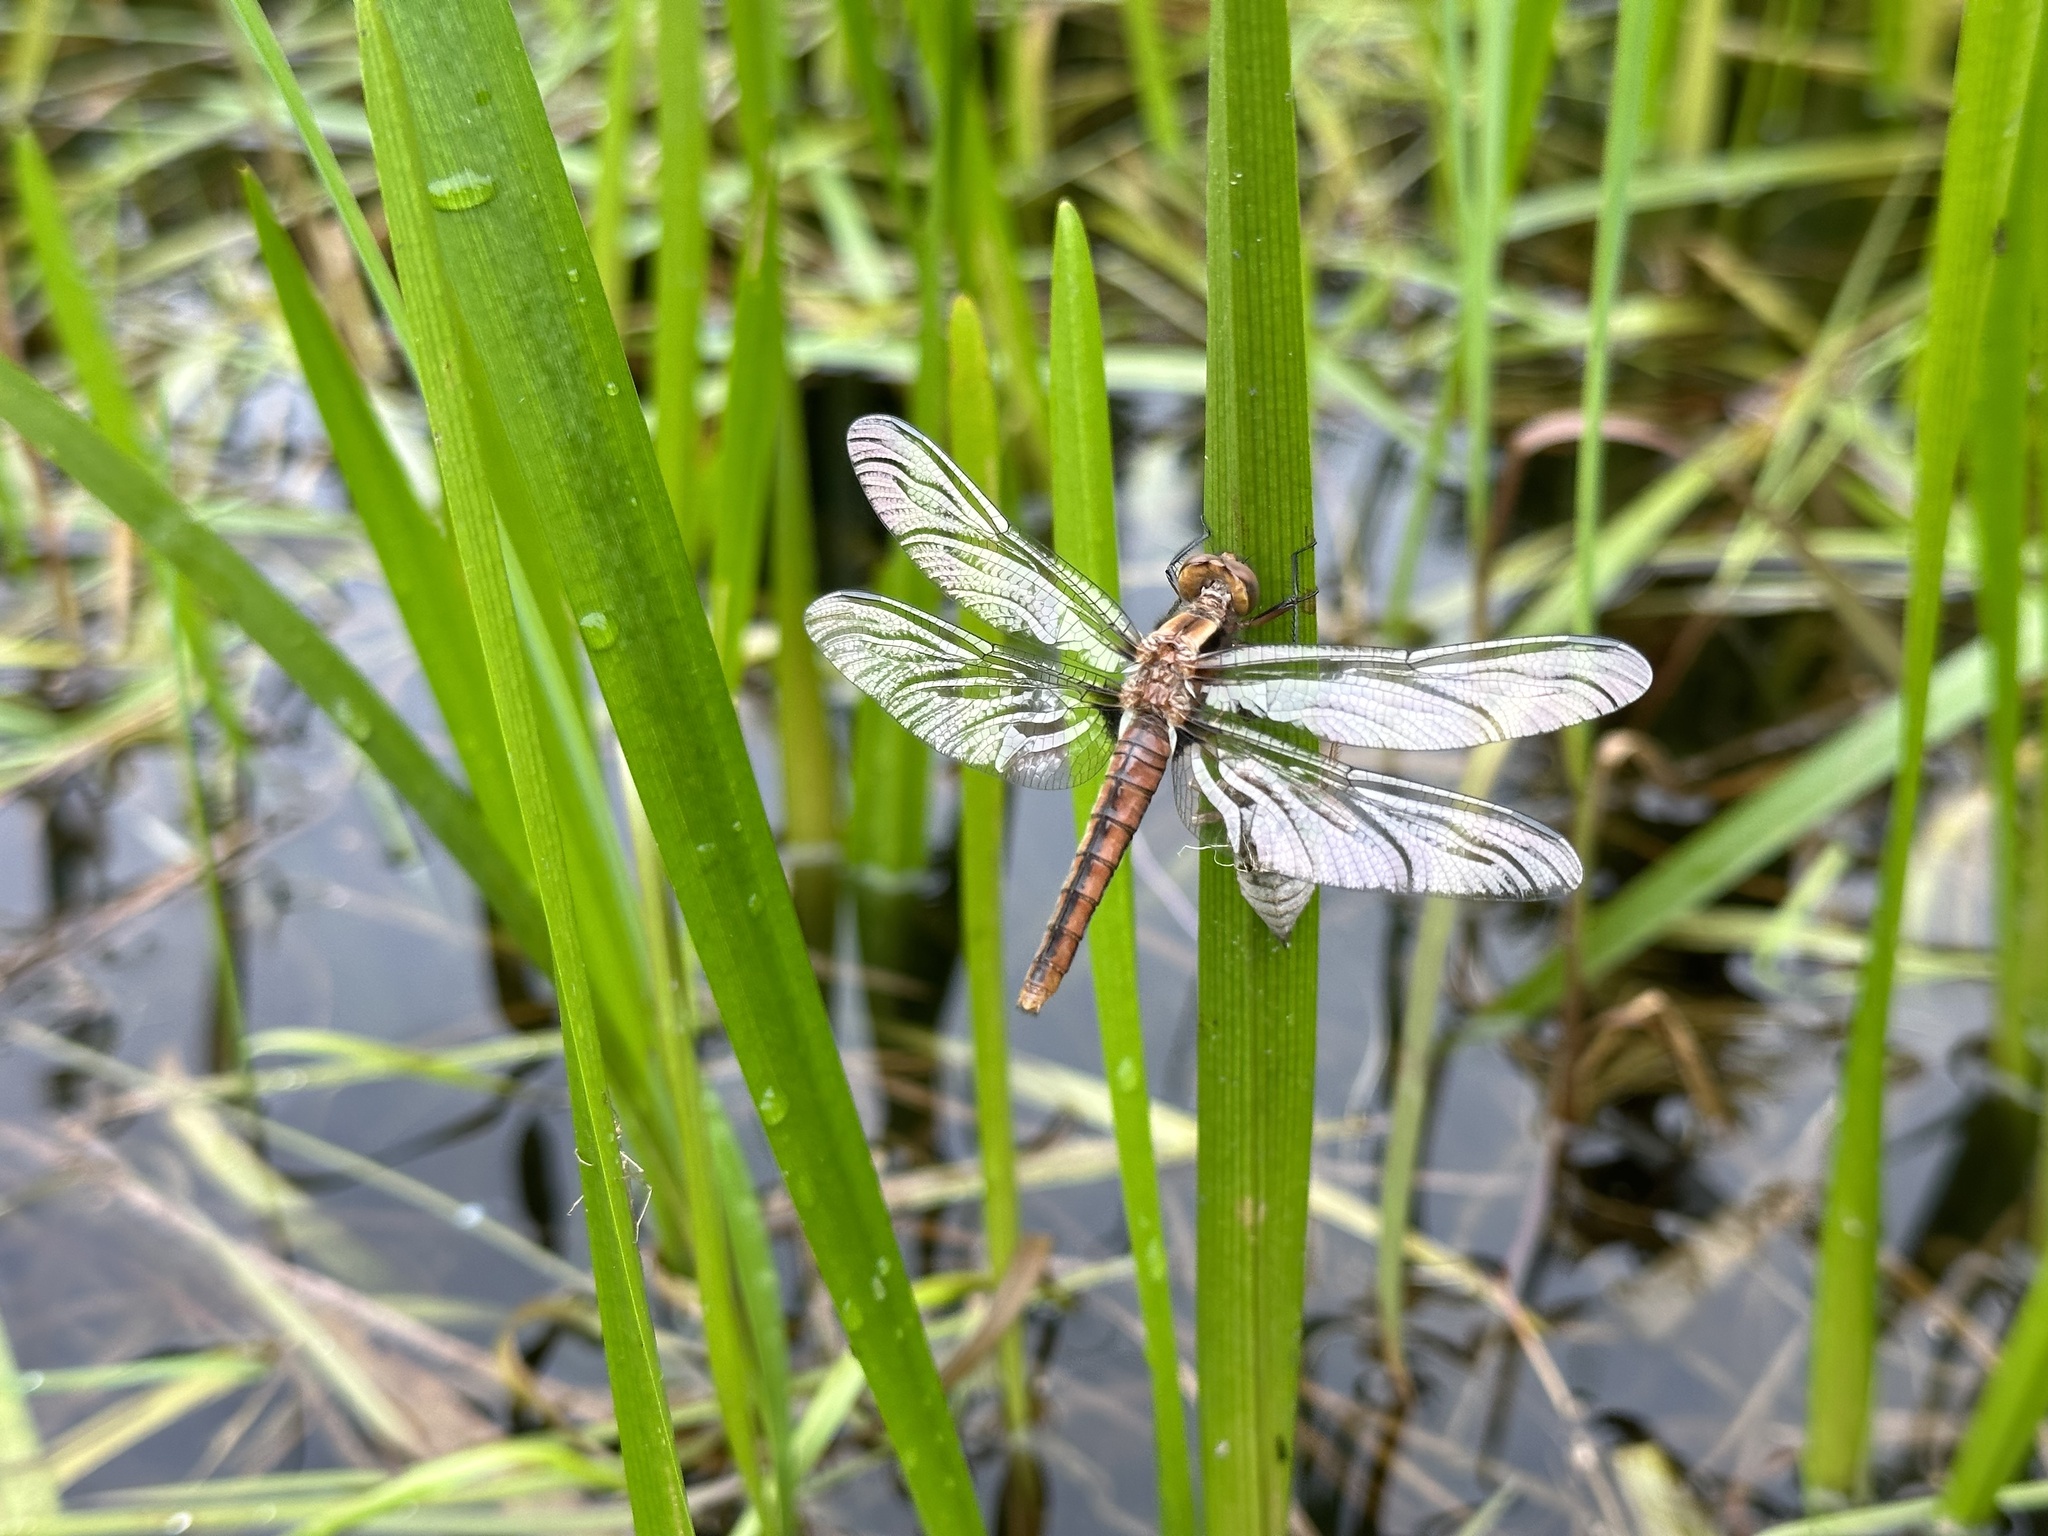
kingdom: Animalia
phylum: Arthropoda
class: Insecta
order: Odonata
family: Libellulidae
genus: Ladona
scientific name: Ladona julia
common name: Chalk-fronted corporal
